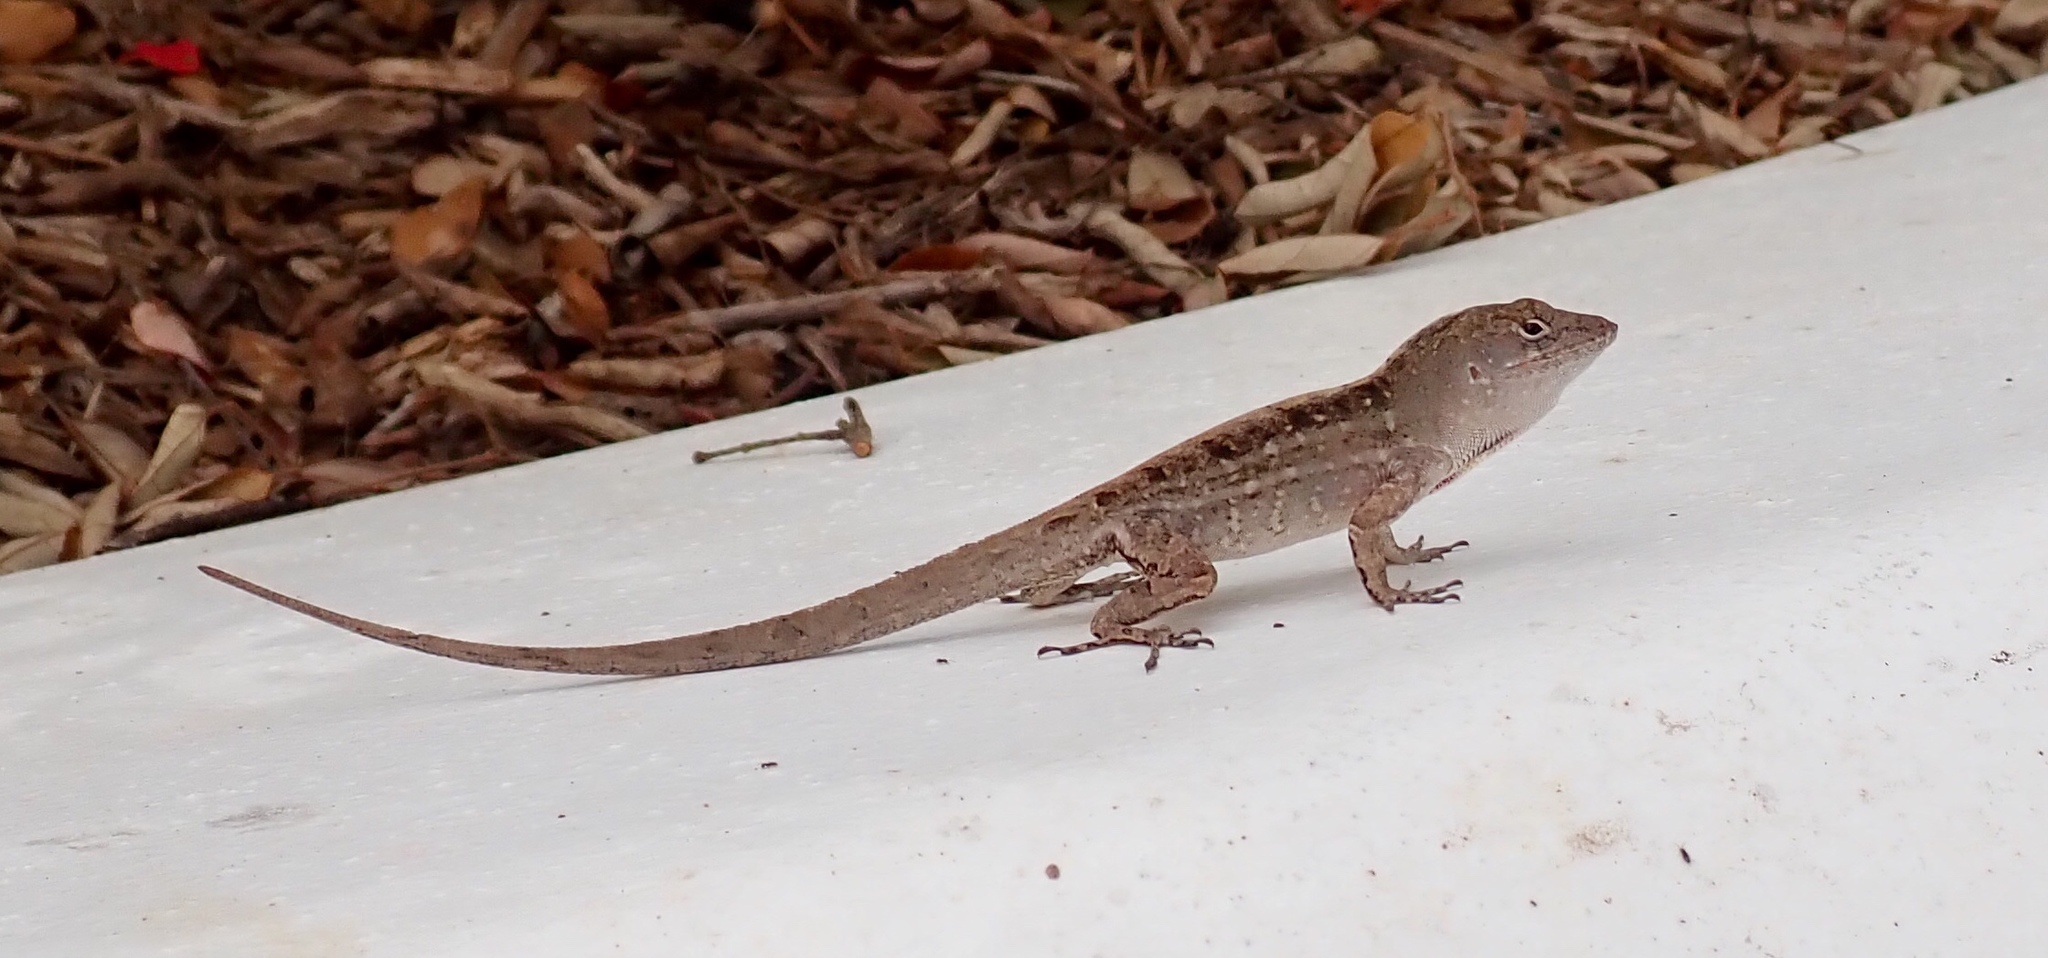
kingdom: Animalia
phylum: Chordata
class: Squamata
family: Dactyloidae
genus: Anolis
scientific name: Anolis sagrei
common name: Brown anole
